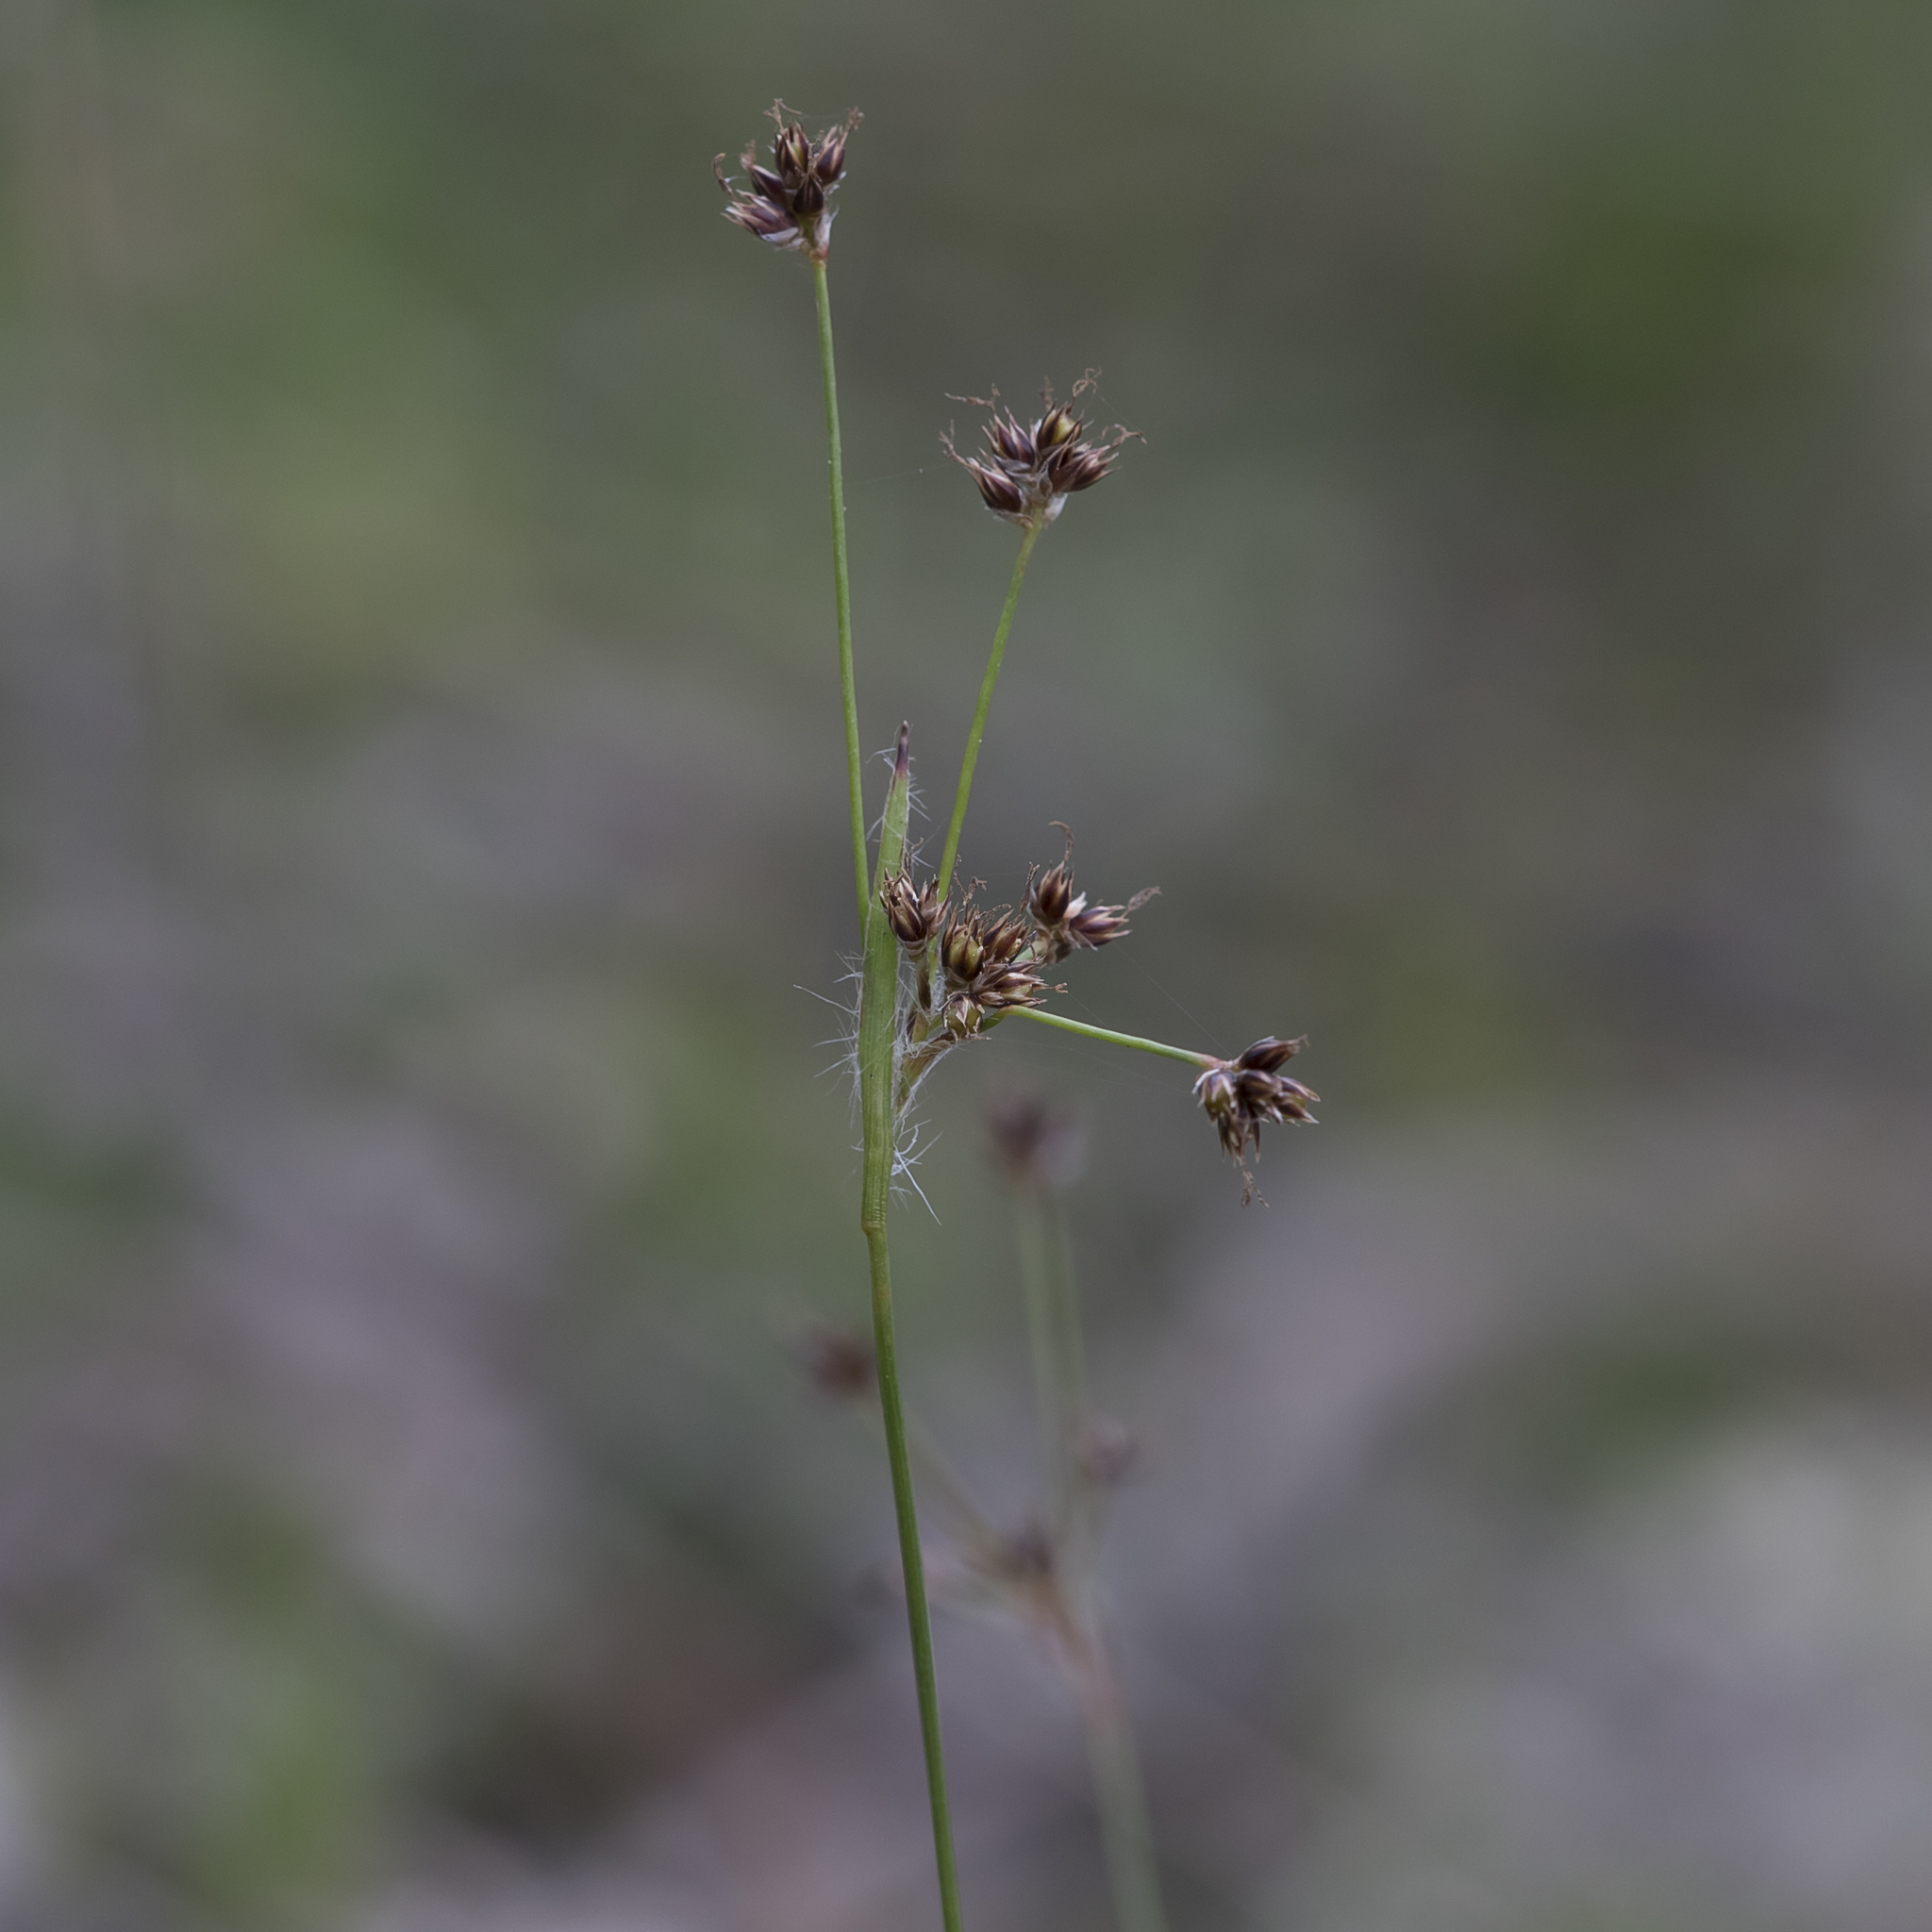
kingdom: Plantae
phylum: Tracheophyta
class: Liliopsida
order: Poales
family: Juncaceae
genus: Luzula
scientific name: Luzula meridionalis
